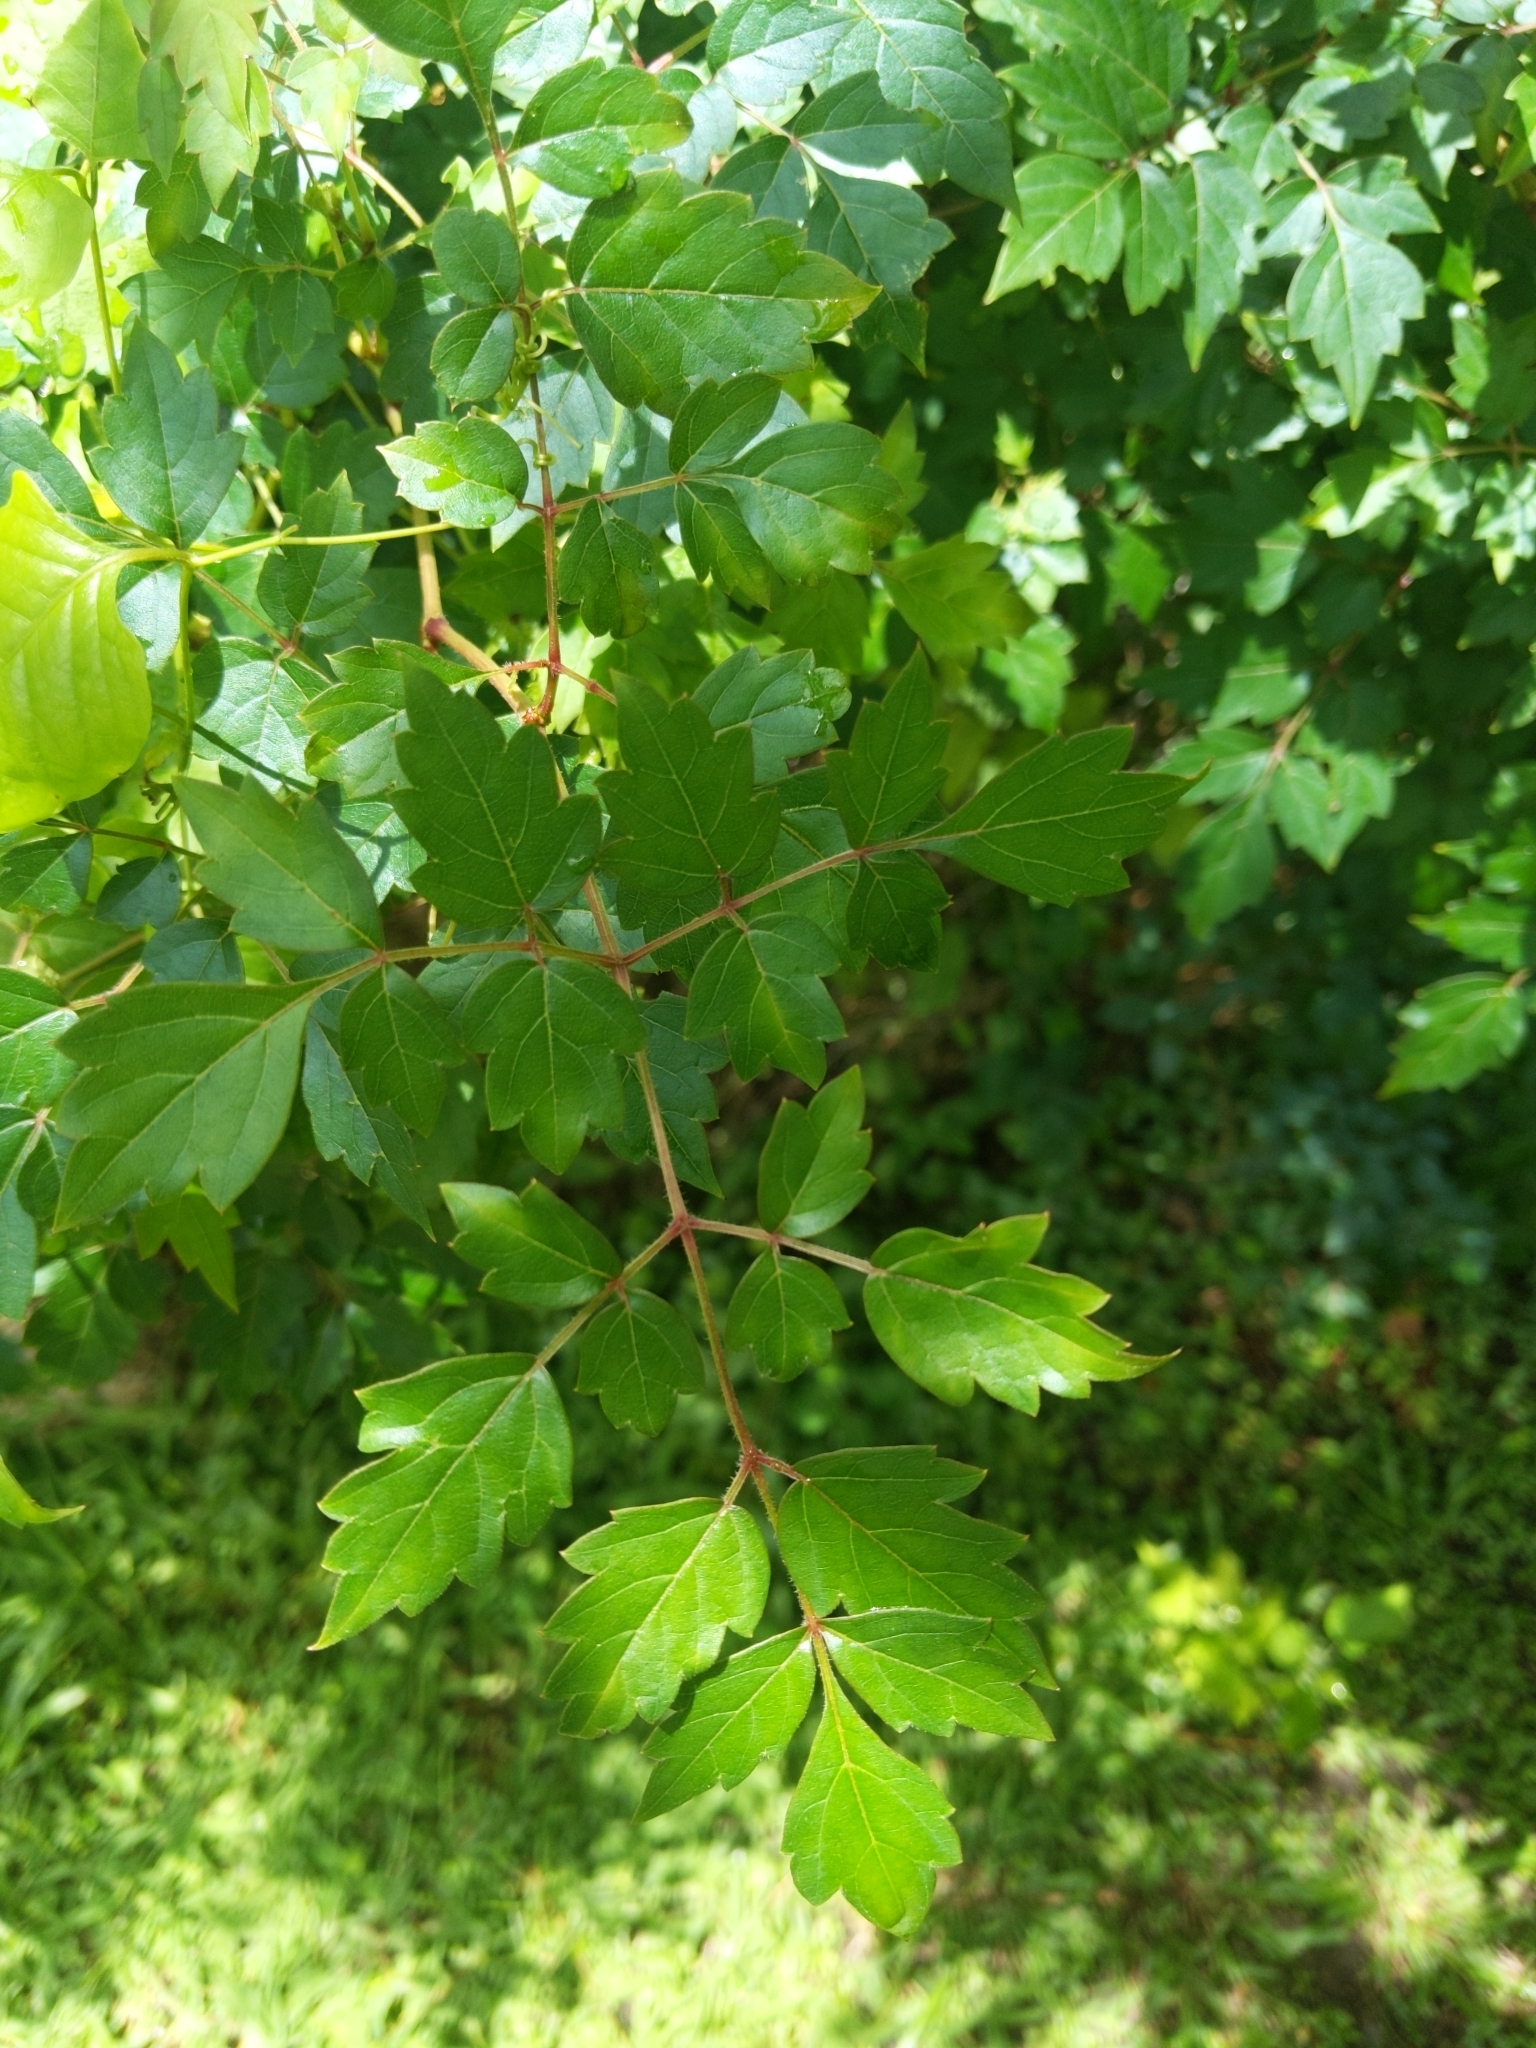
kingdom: Plantae
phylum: Tracheophyta
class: Magnoliopsida
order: Vitales
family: Vitaceae
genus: Nekemias
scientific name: Nekemias arborea
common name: Peppervine
